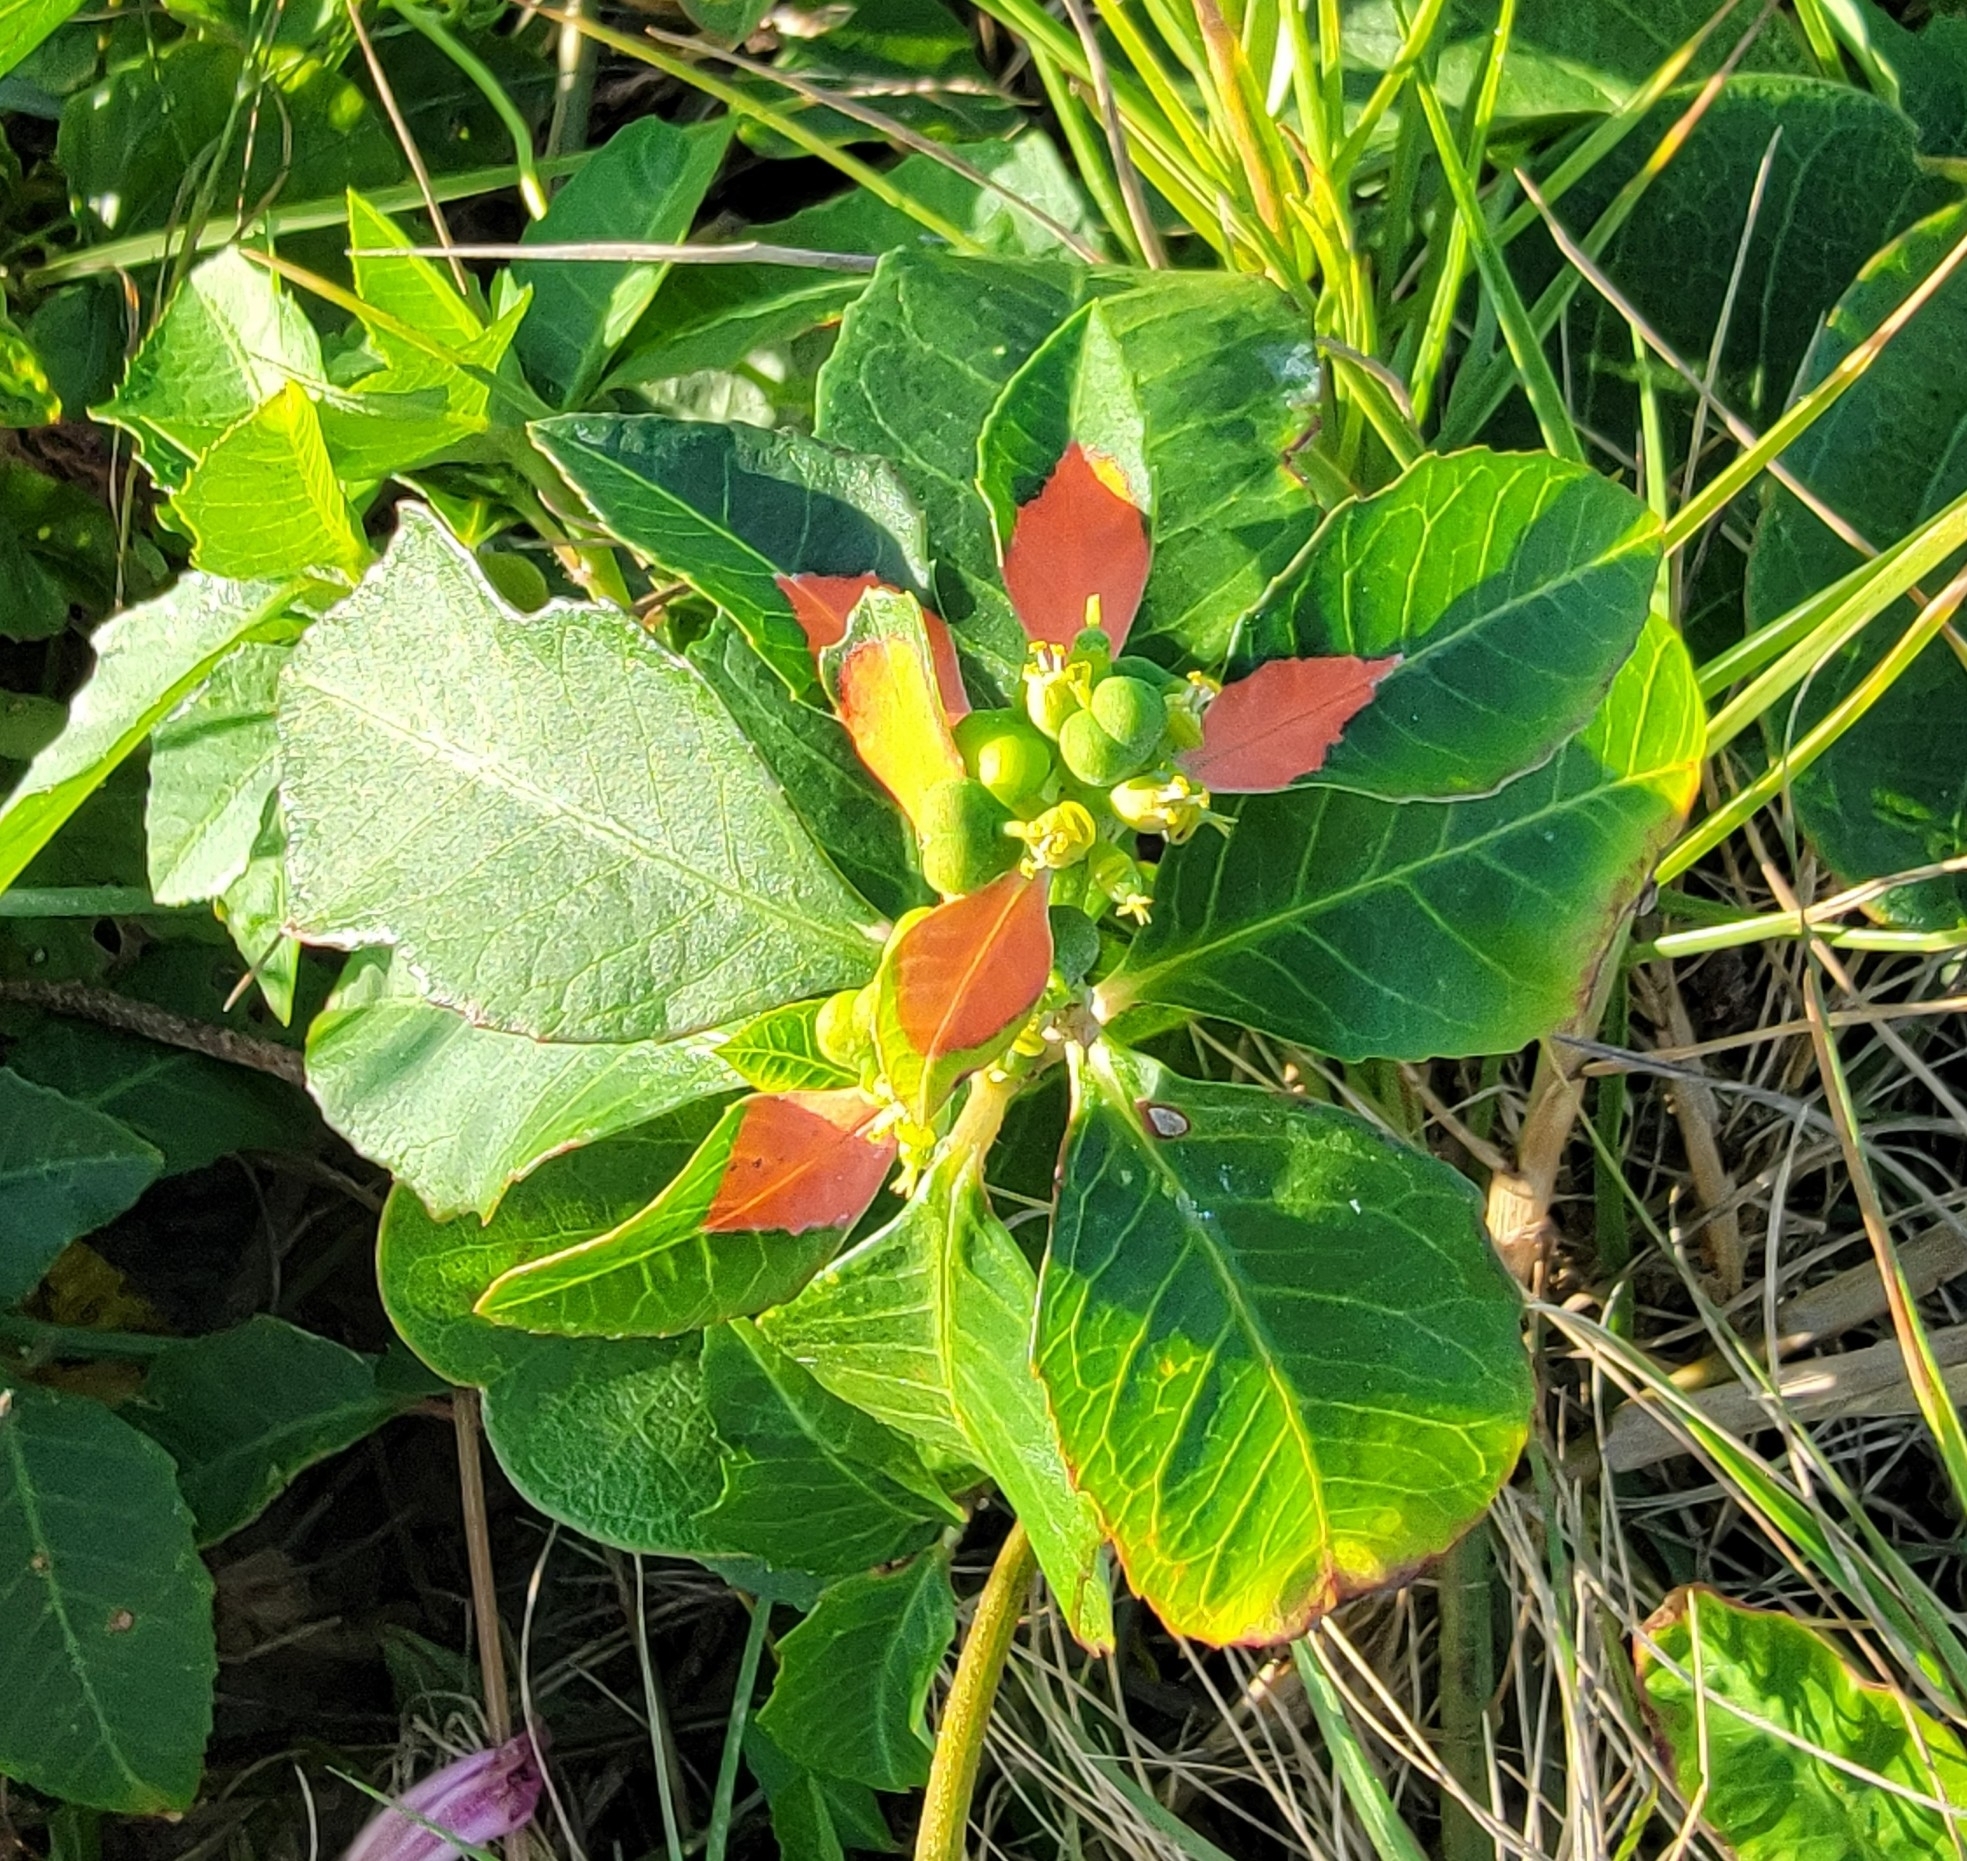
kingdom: Plantae
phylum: Tracheophyta
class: Magnoliopsida
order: Malpighiales
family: Euphorbiaceae
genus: Euphorbia
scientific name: Euphorbia heterophylla
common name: Mexican fireplant
